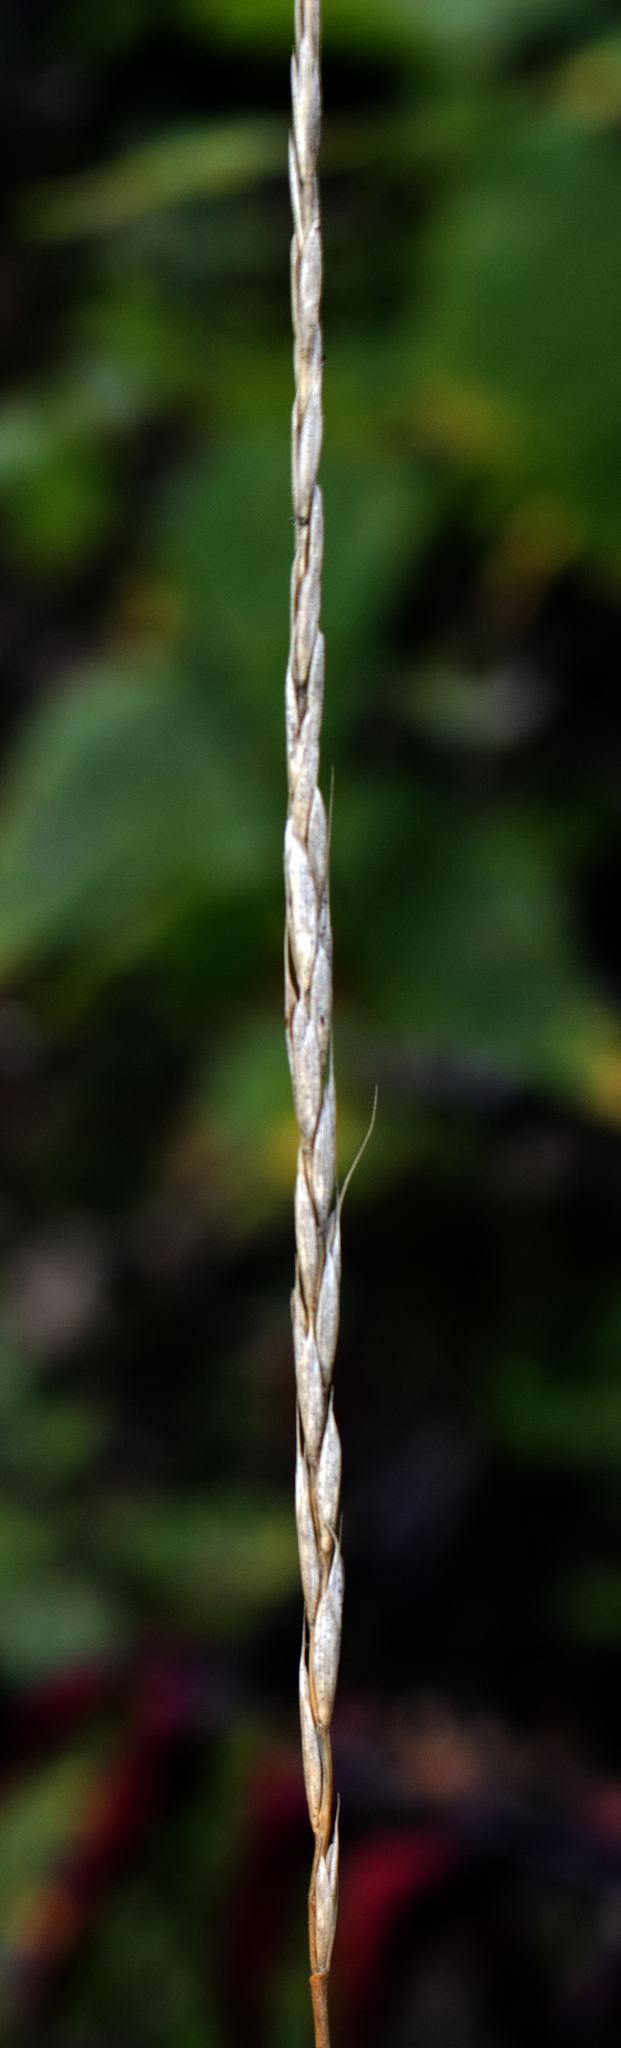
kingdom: Plantae
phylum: Tracheophyta
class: Liliopsida
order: Poales
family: Poaceae
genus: Oryzopsis
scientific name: Oryzopsis asperifolia
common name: Rough-leaved mountain rice
